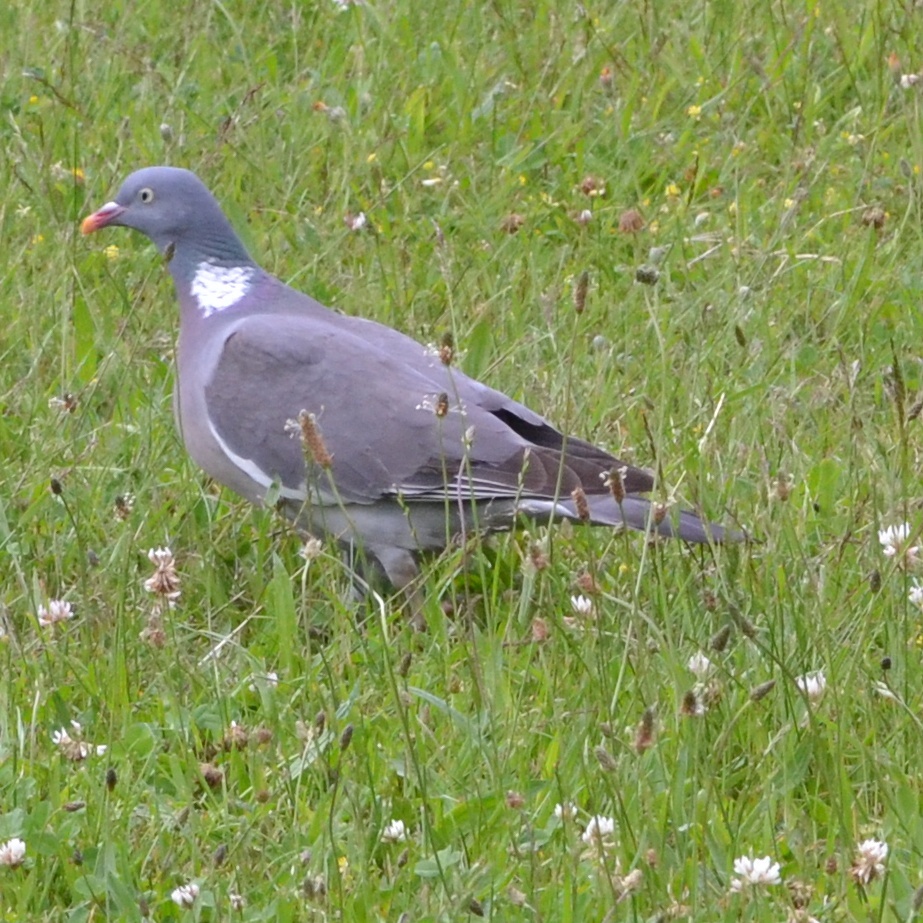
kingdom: Animalia
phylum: Chordata
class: Aves
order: Columbiformes
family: Columbidae
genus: Columba
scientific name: Columba palumbus
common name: Common wood pigeon
